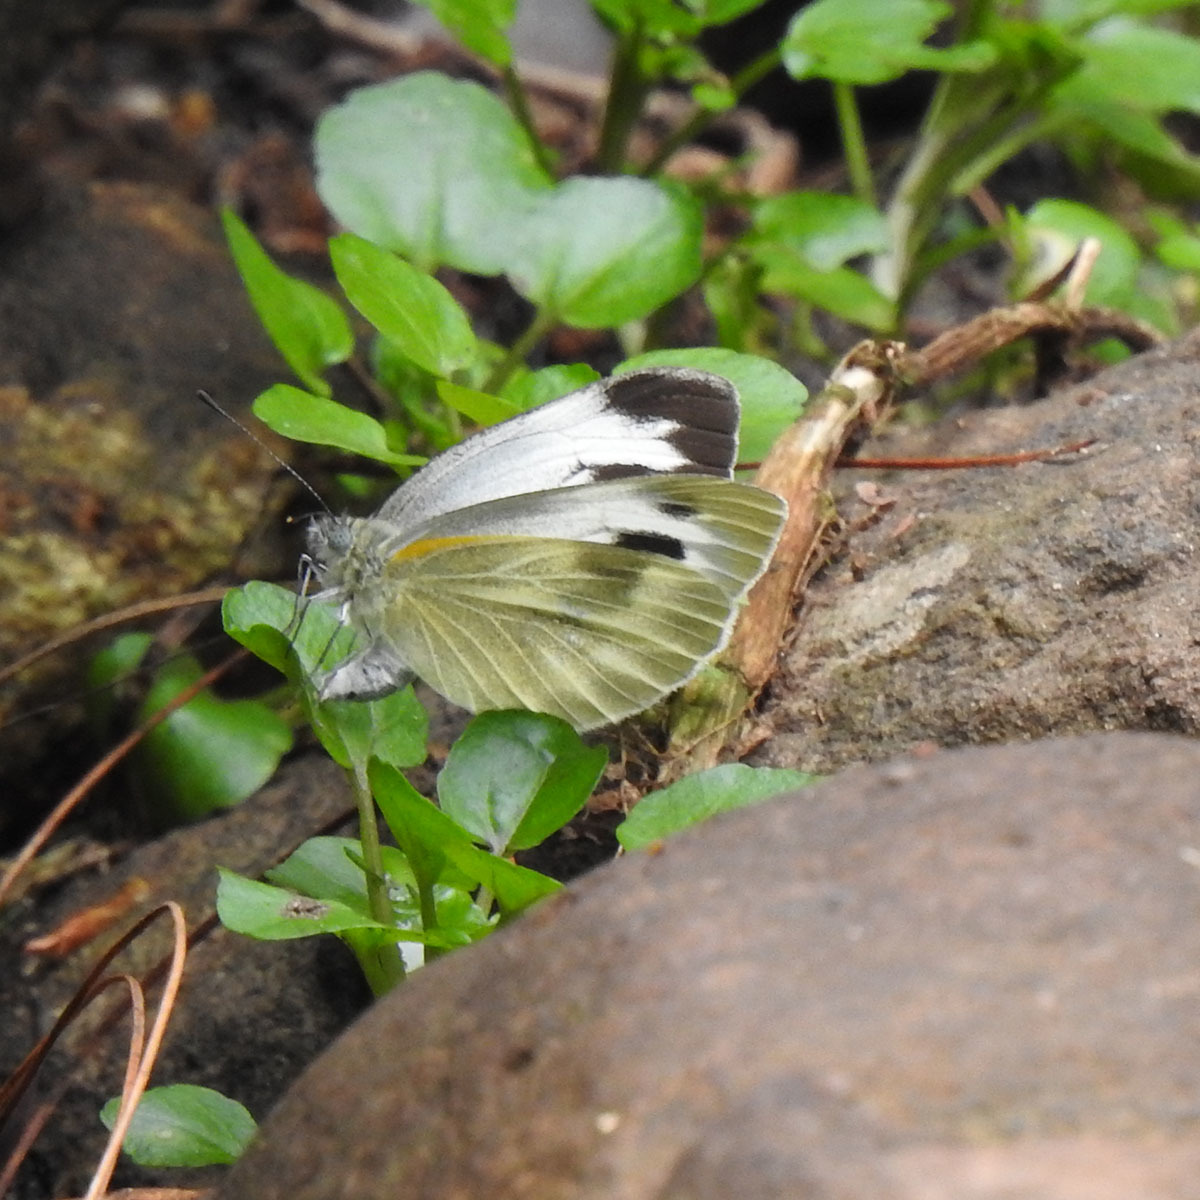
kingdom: Animalia
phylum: Arthropoda
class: Insecta
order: Lepidoptera
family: Pieridae
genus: Pieris
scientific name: Pieris canidia
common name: Indian cabbage white
